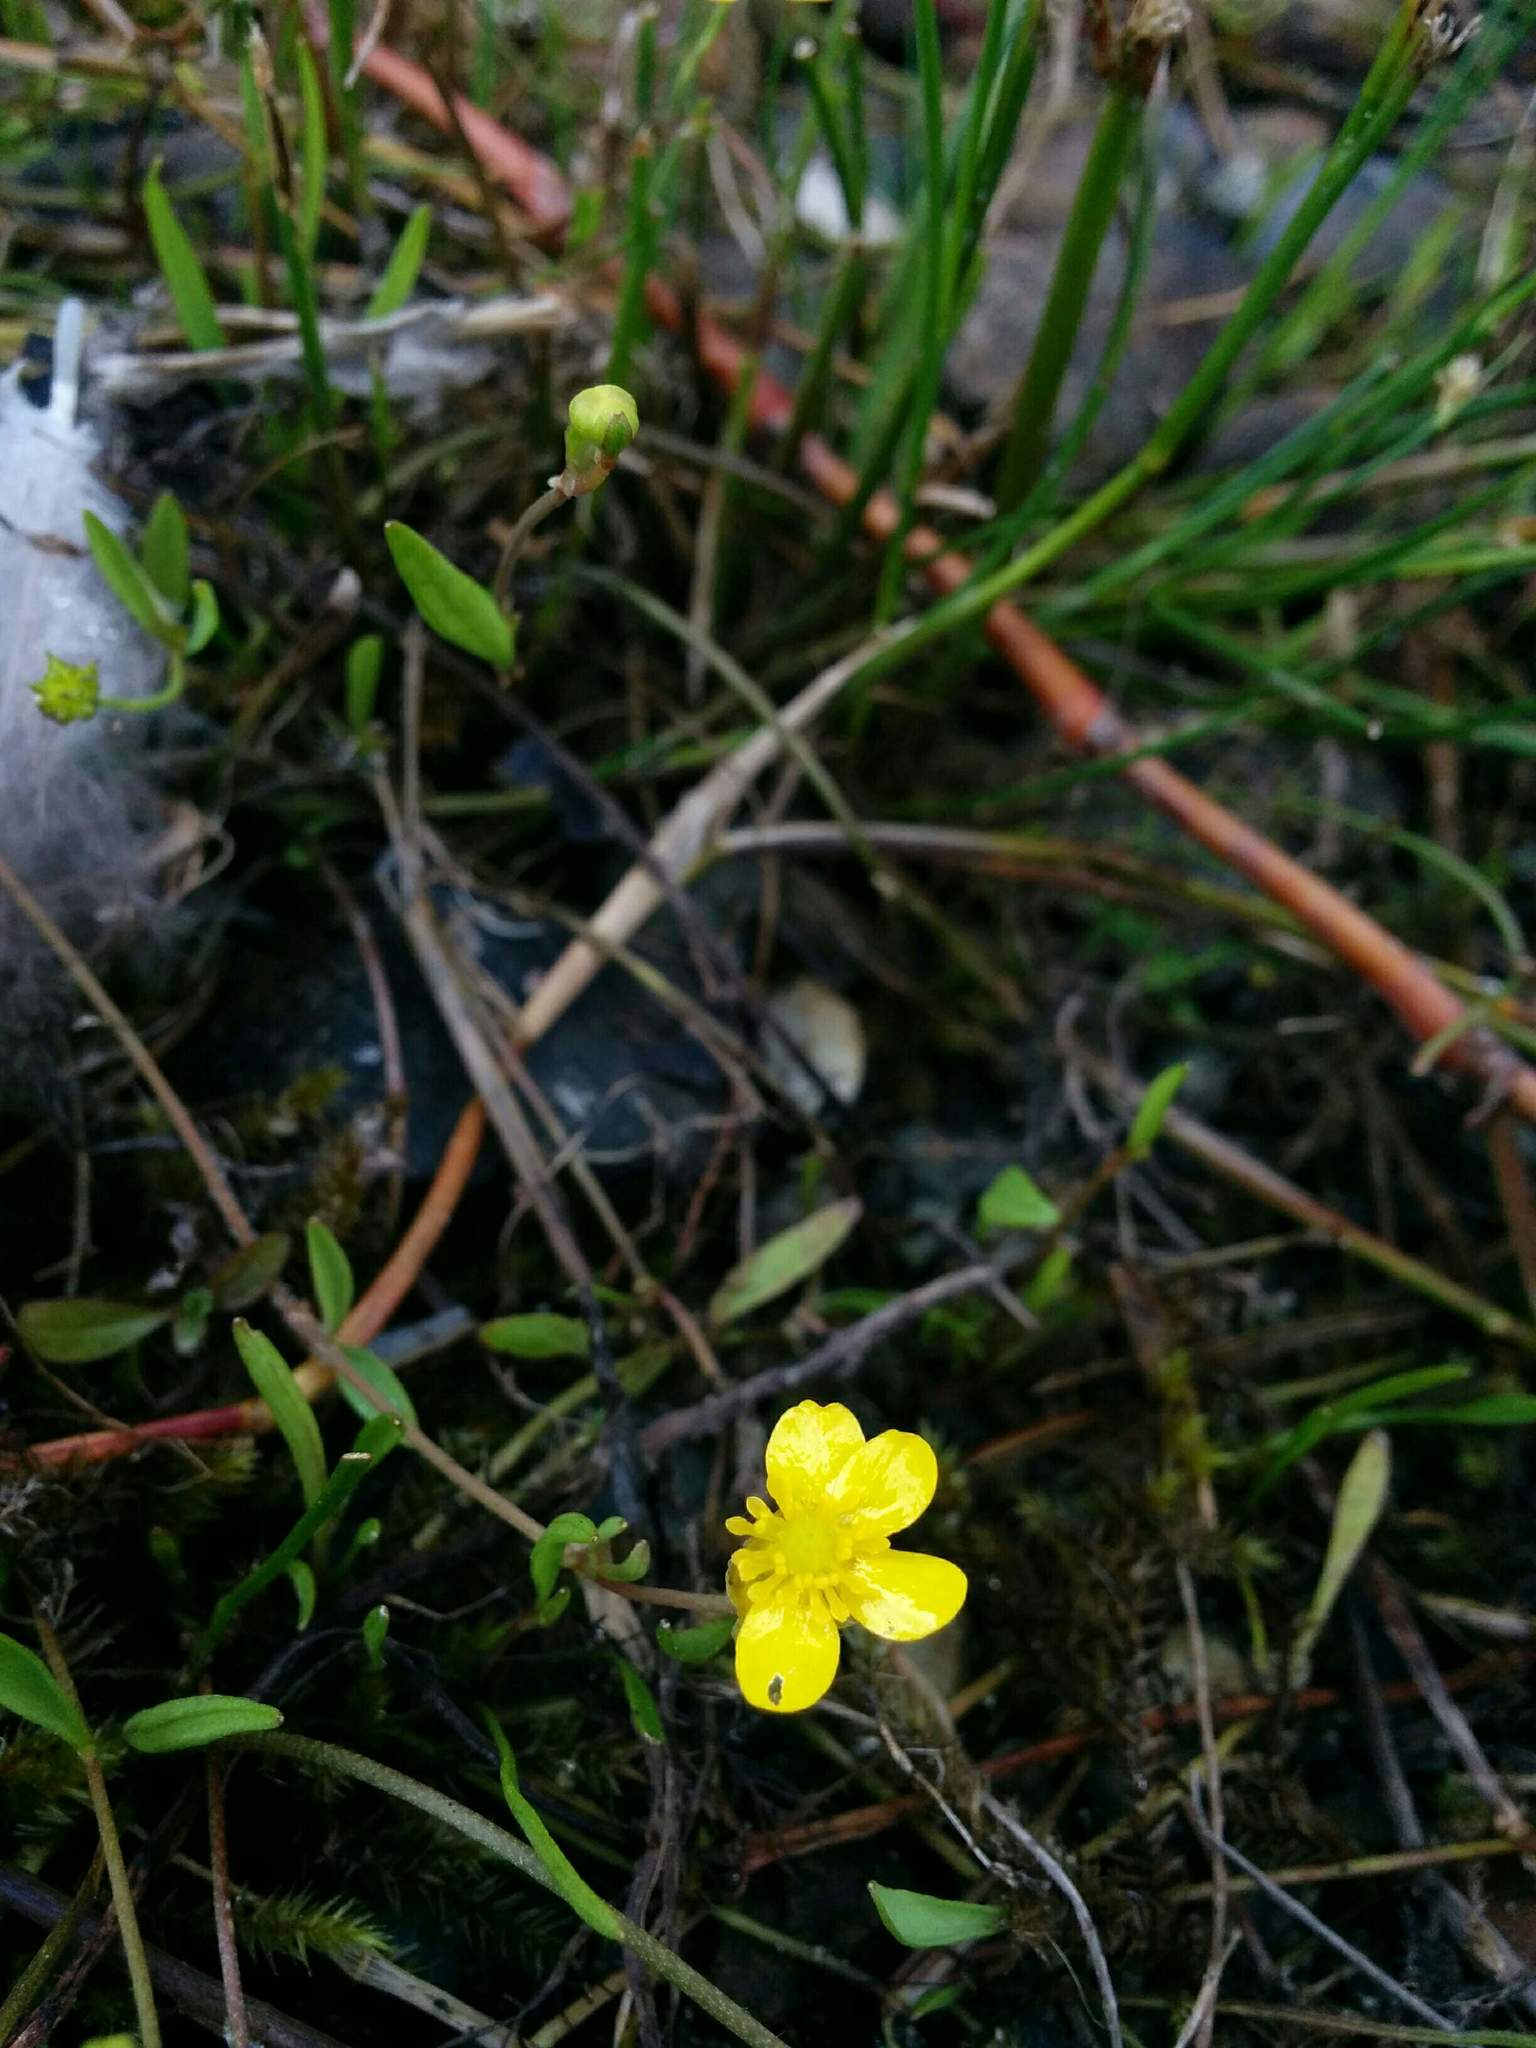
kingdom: Plantae
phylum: Tracheophyta
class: Magnoliopsida
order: Ranunculales
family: Ranunculaceae
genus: Ranunculus
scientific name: Ranunculus flammula
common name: Lesser spearwort
